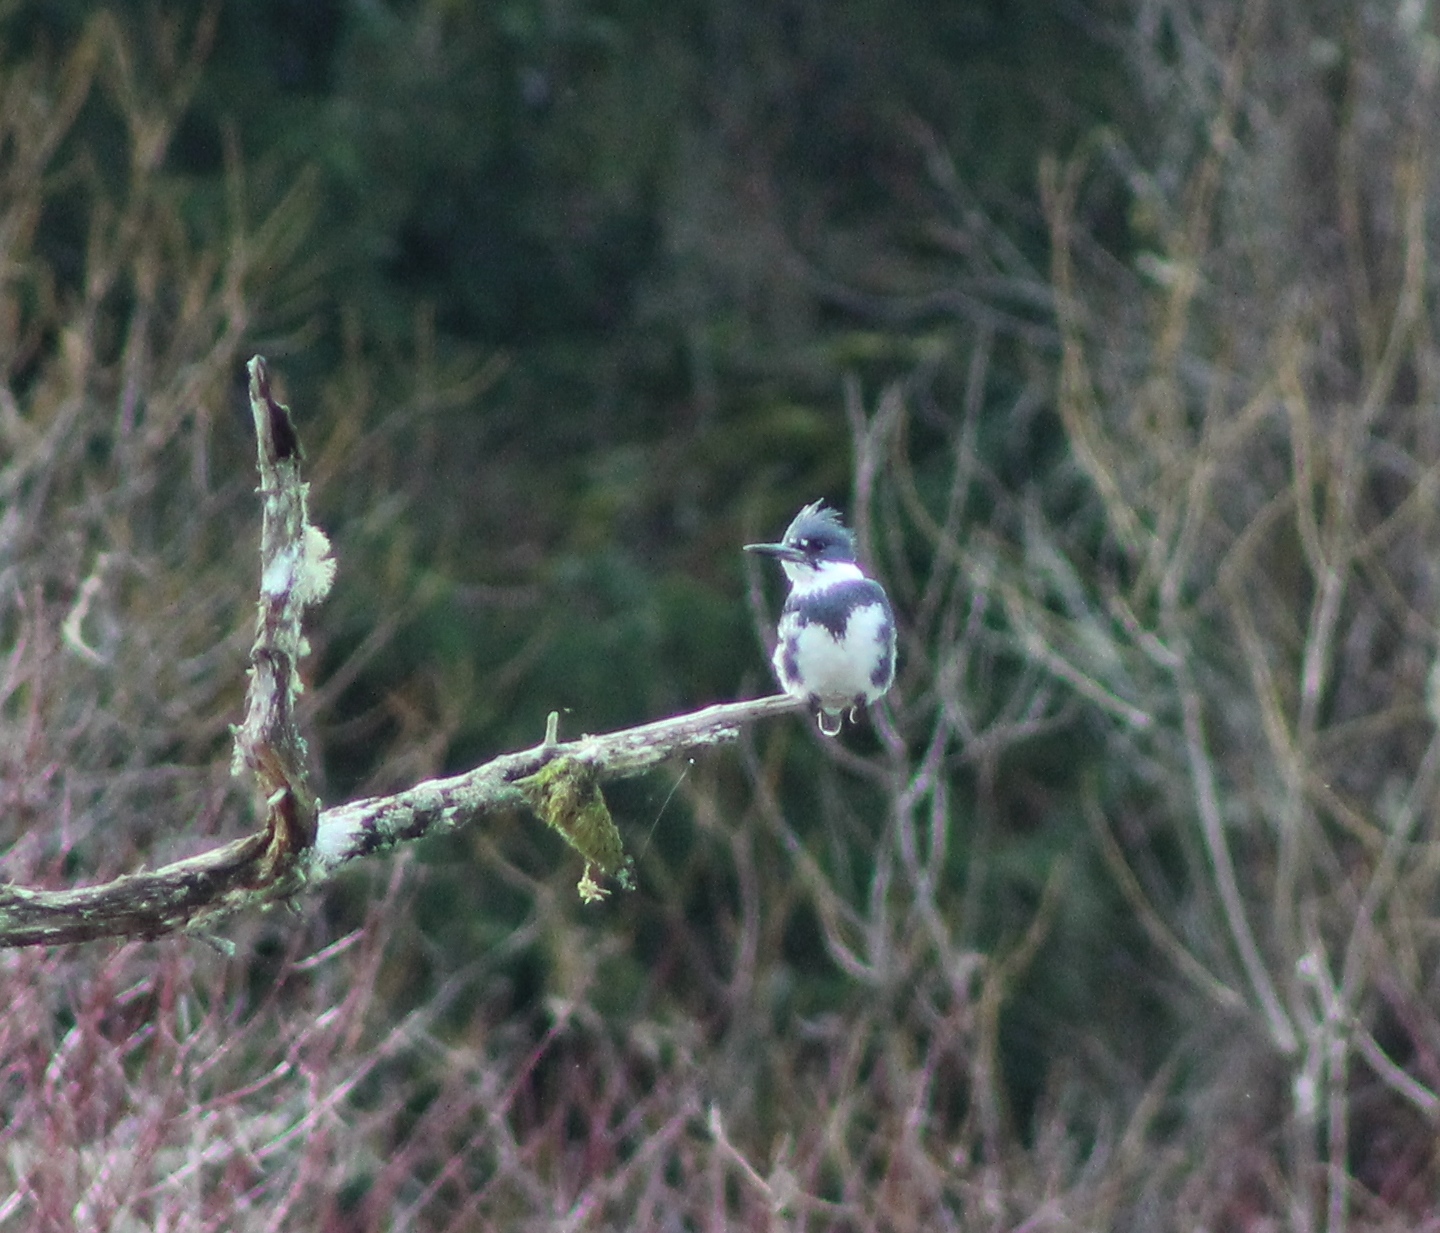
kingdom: Animalia
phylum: Chordata
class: Aves
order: Coraciiformes
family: Alcedinidae
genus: Megaceryle
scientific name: Megaceryle alcyon
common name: Belted kingfisher
